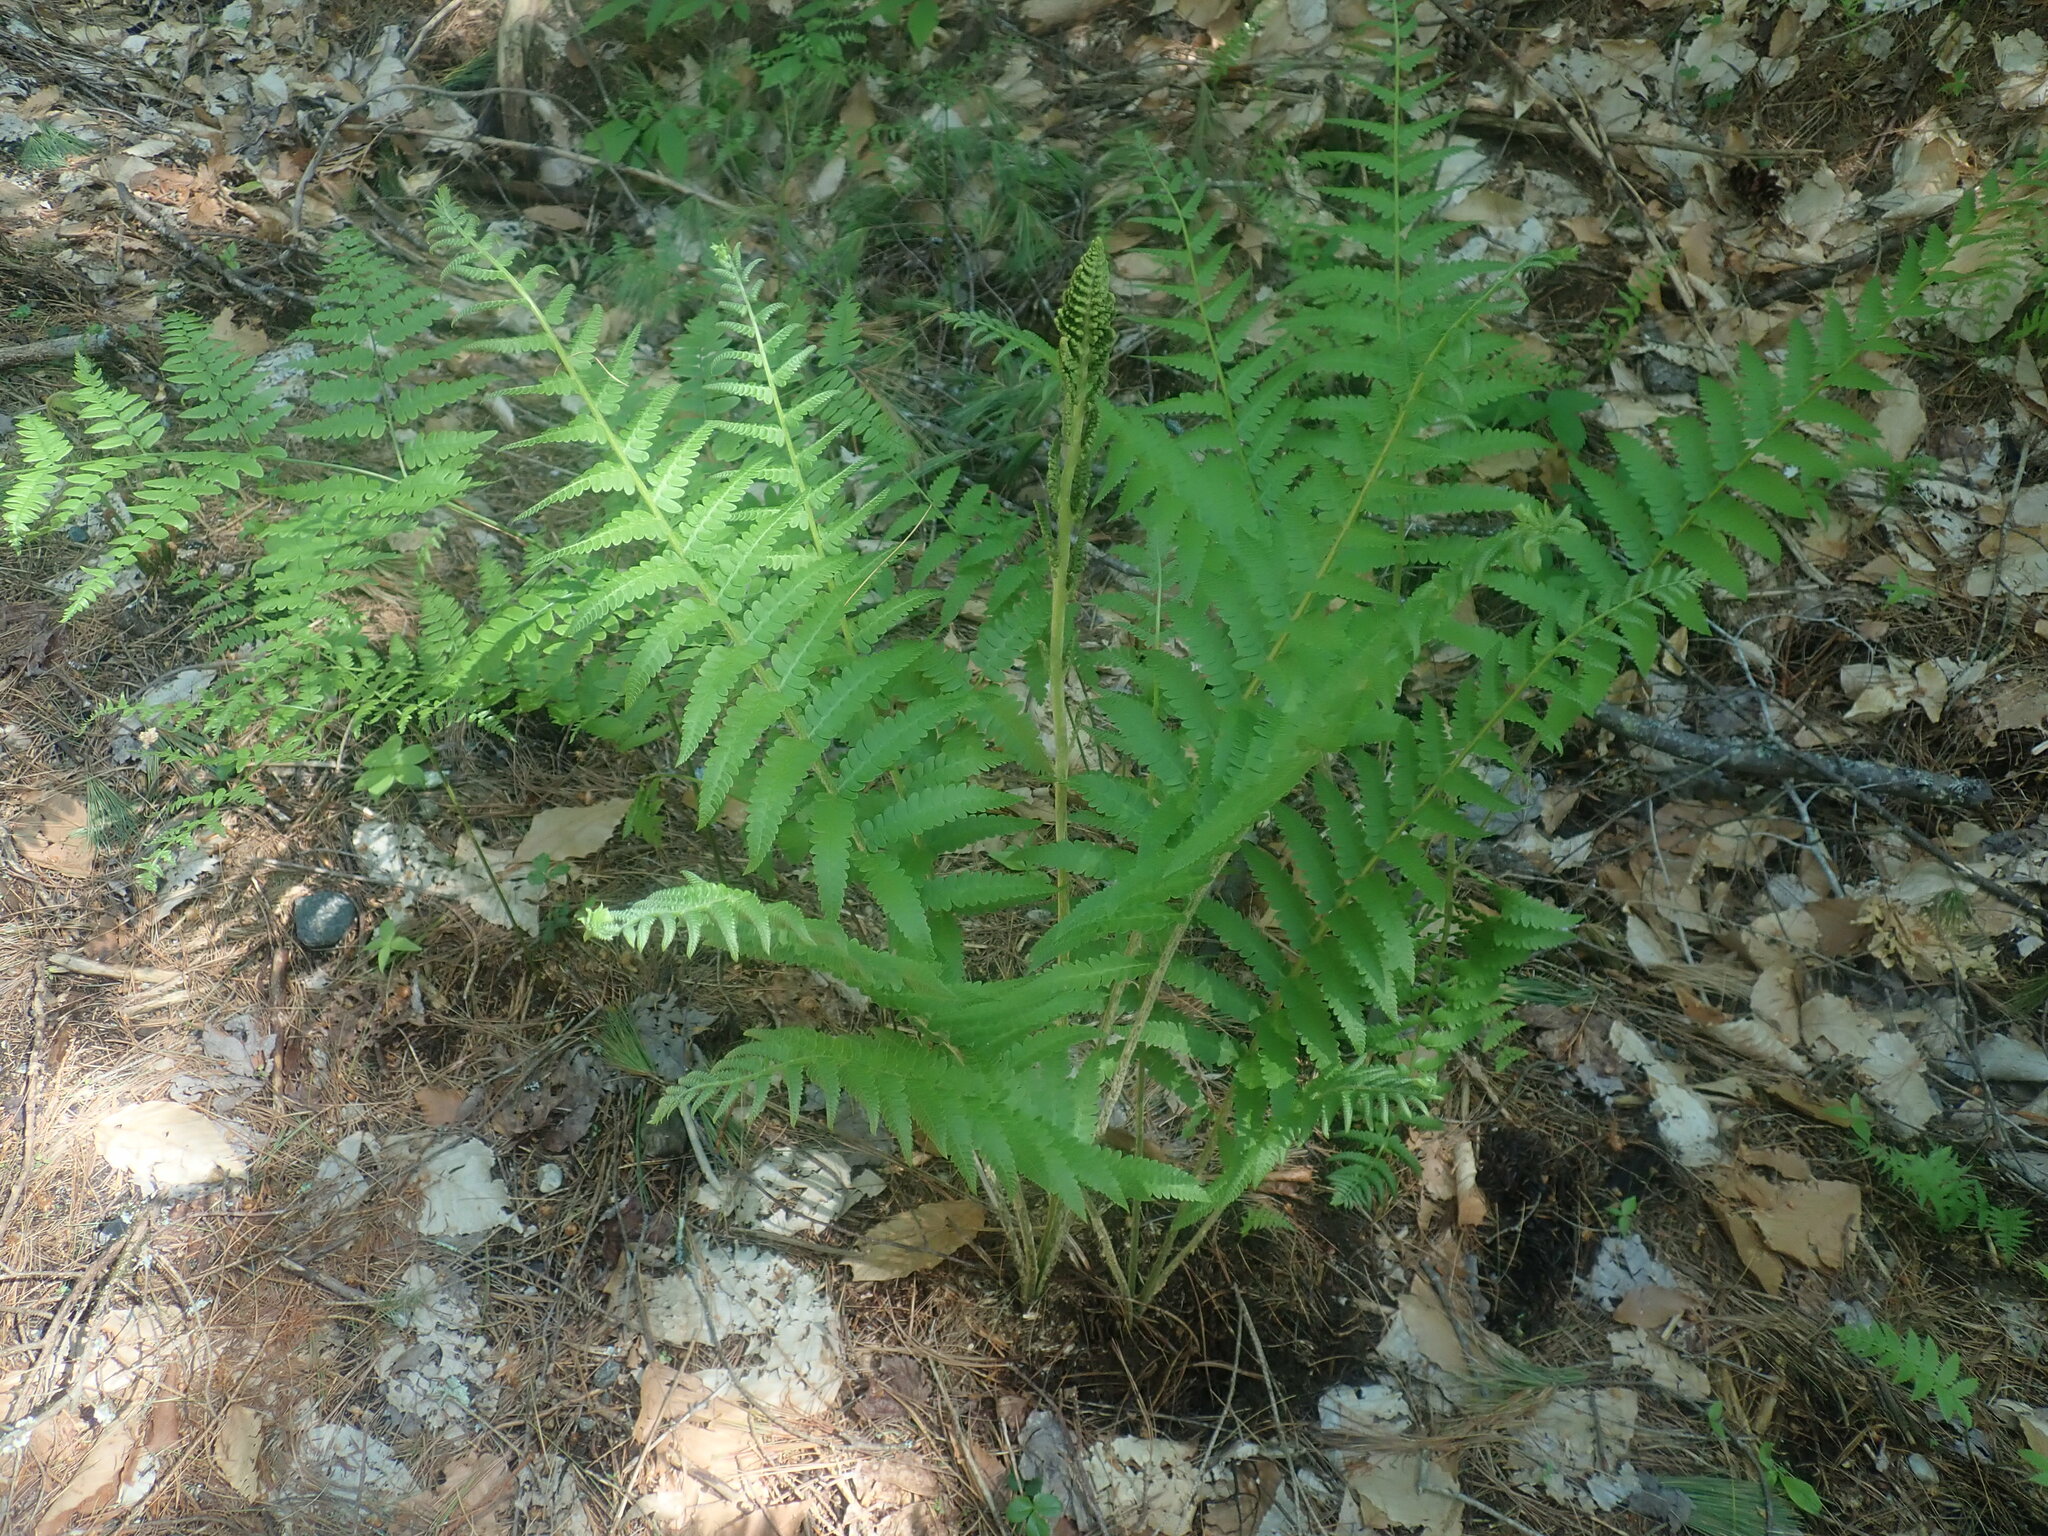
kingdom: Plantae
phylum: Tracheophyta
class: Polypodiopsida
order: Osmundales
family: Osmundaceae
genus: Osmundastrum
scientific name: Osmundastrum cinnamomeum
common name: Cinnamon fern
